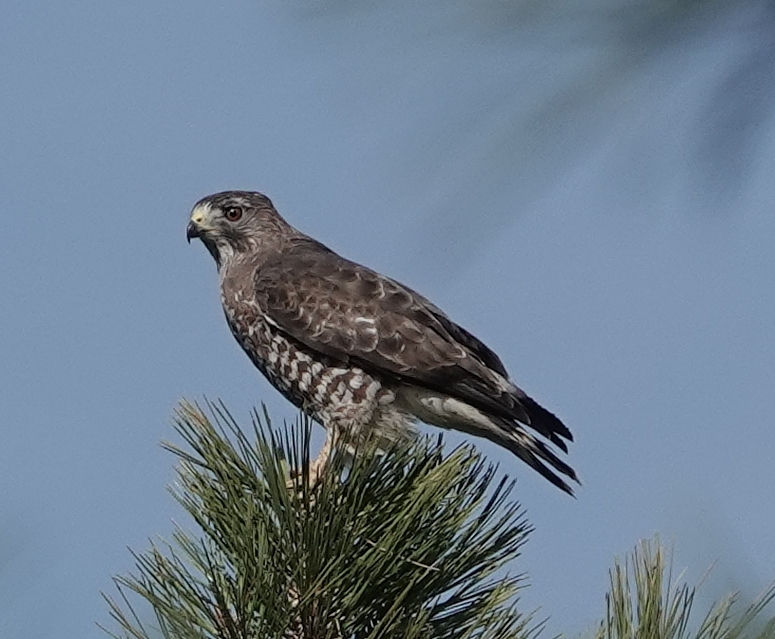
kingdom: Animalia
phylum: Chordata
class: Aves
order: Accipitriformes
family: Accipitridae
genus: Buteo
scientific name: Buteo swainsoni
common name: Swainson's hawk
